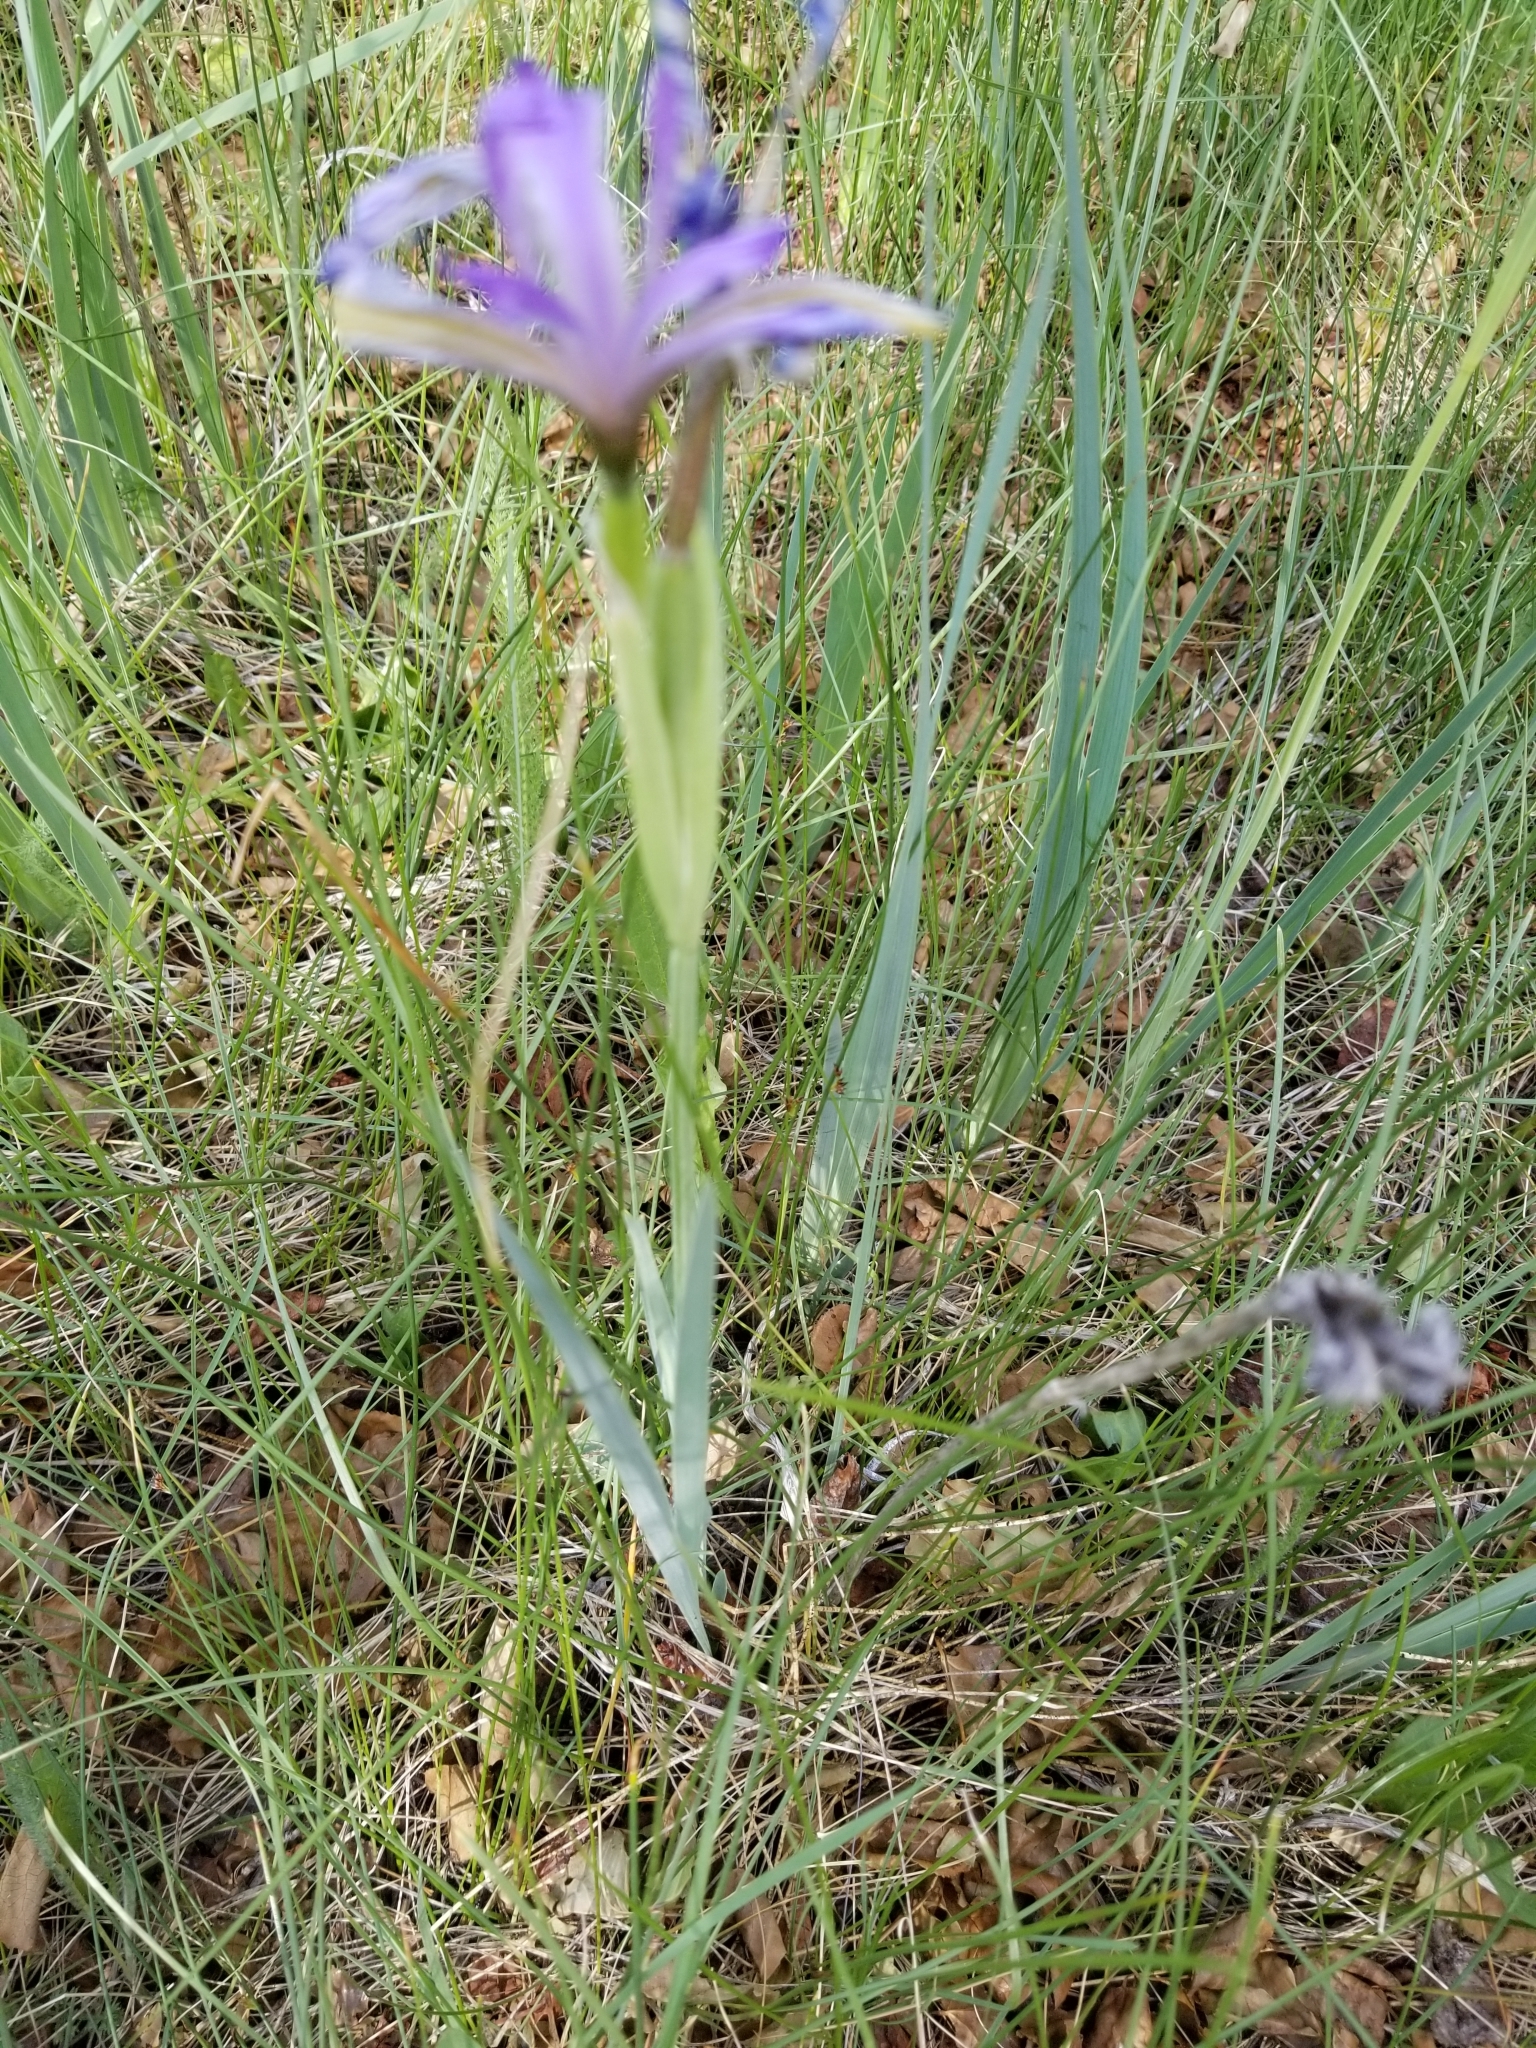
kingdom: Plantae
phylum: Tracheophyta
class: Liliopsida
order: Asparagales
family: Iridaceae
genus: Iris
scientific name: Iris missouriensis
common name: Rocky mountain iris
